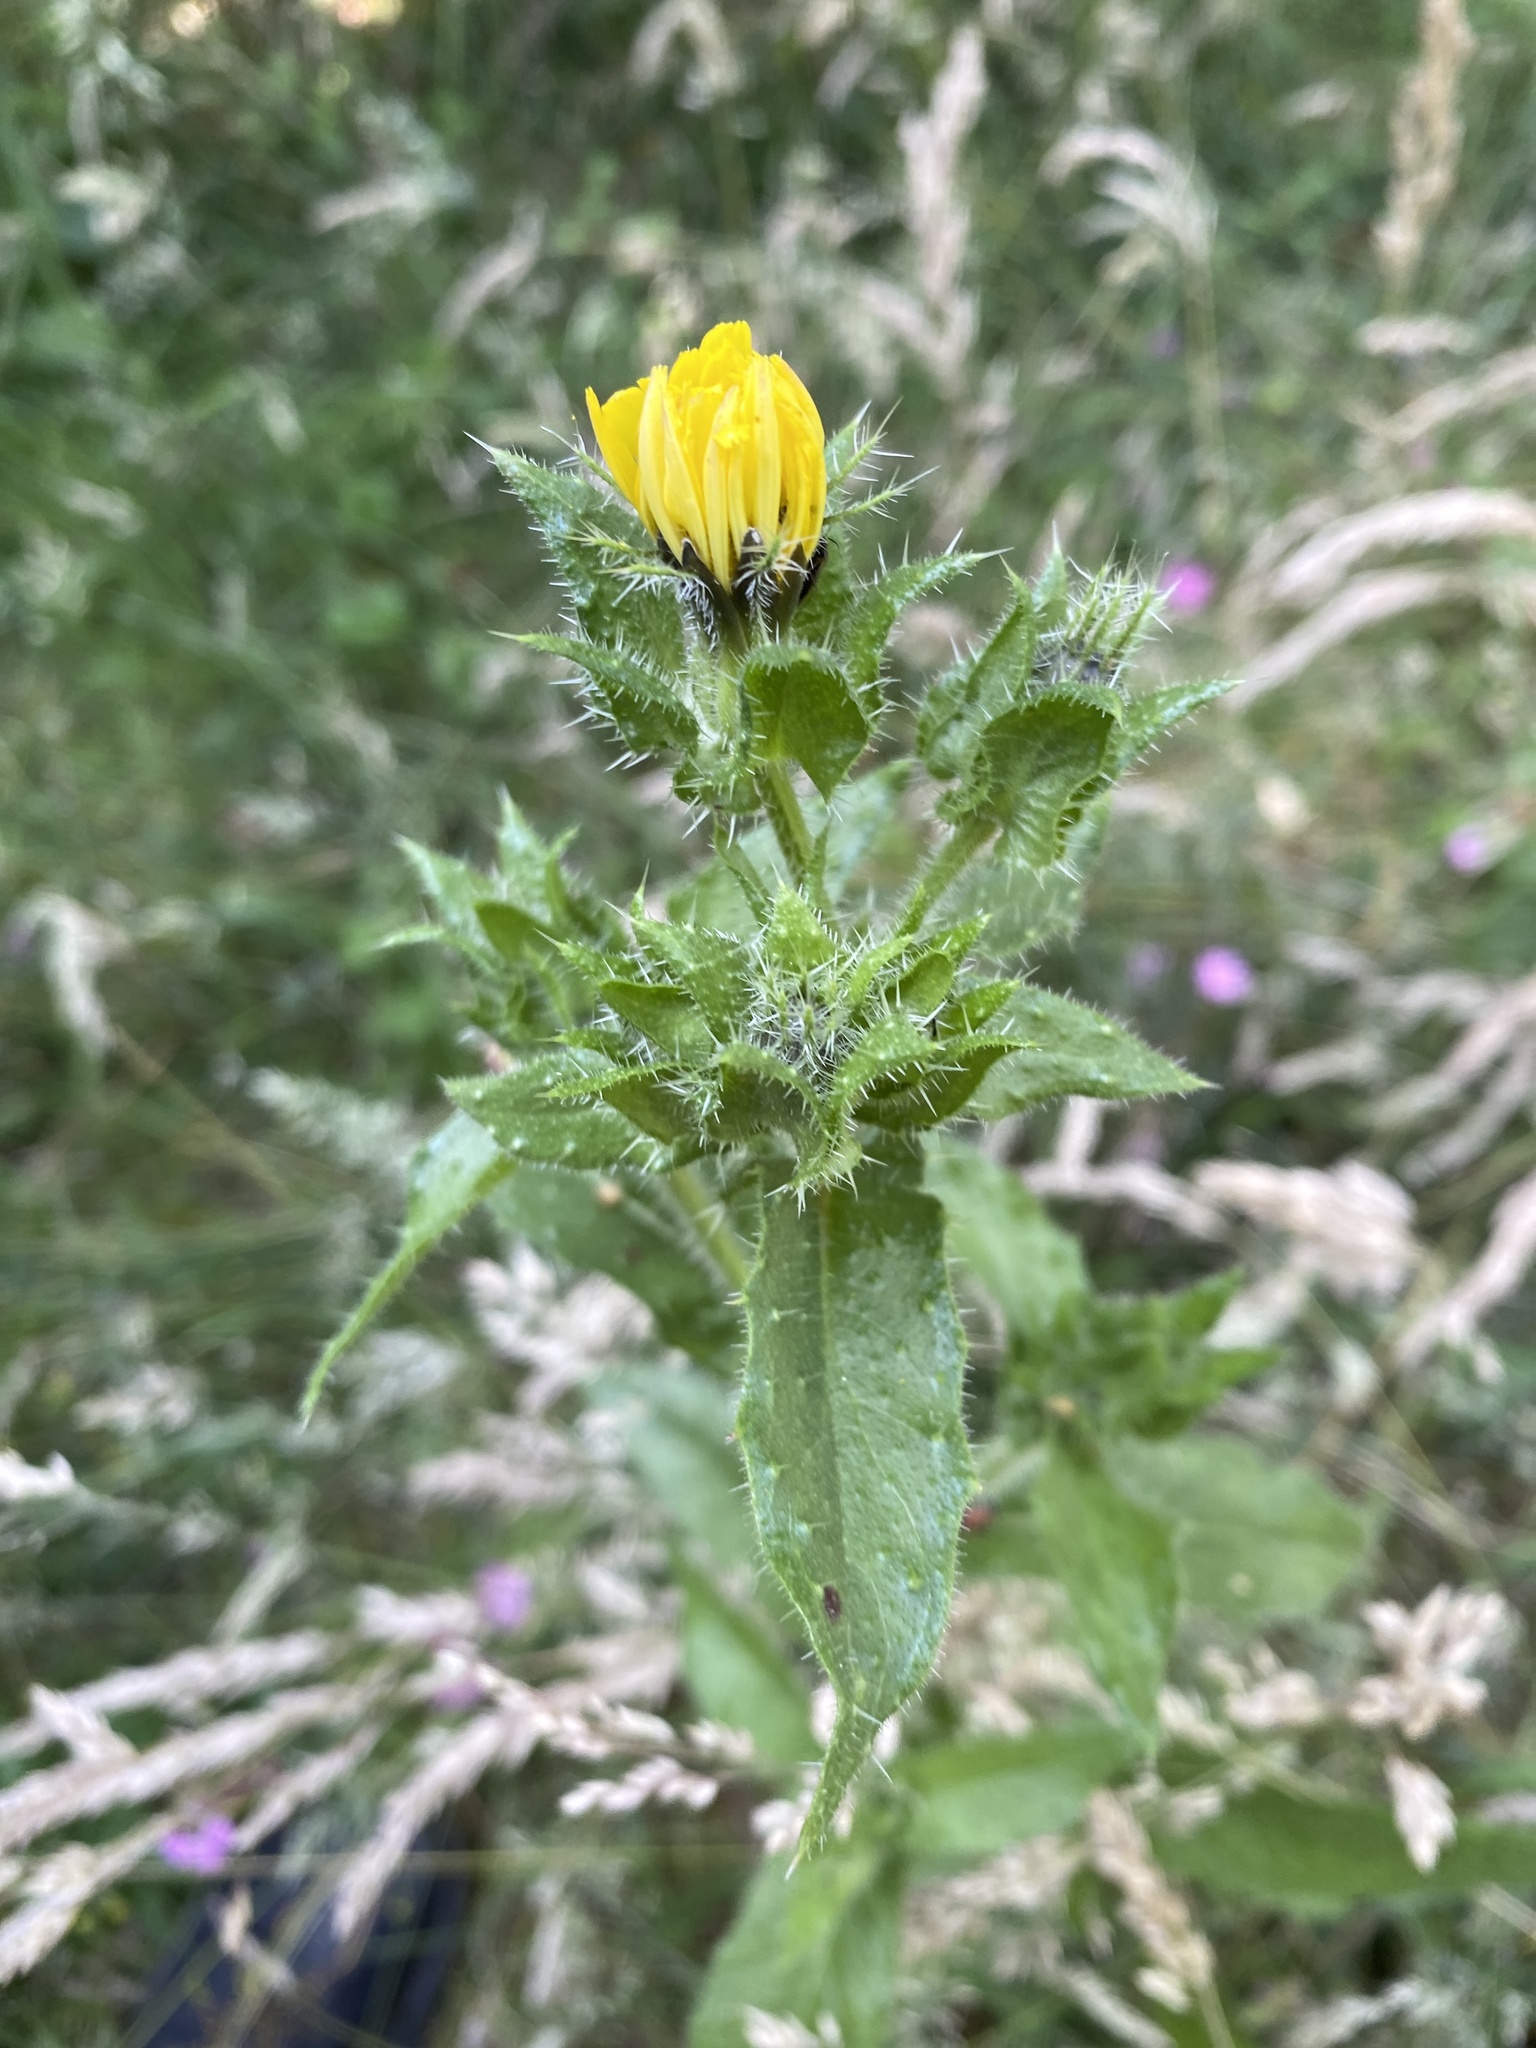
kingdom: Plantae
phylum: Tracheophyta
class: Magnoliopsida
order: Asterales
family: Asteraceae
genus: Helminthotheca
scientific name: Helminthotheca echioides
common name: Ox-tongue
